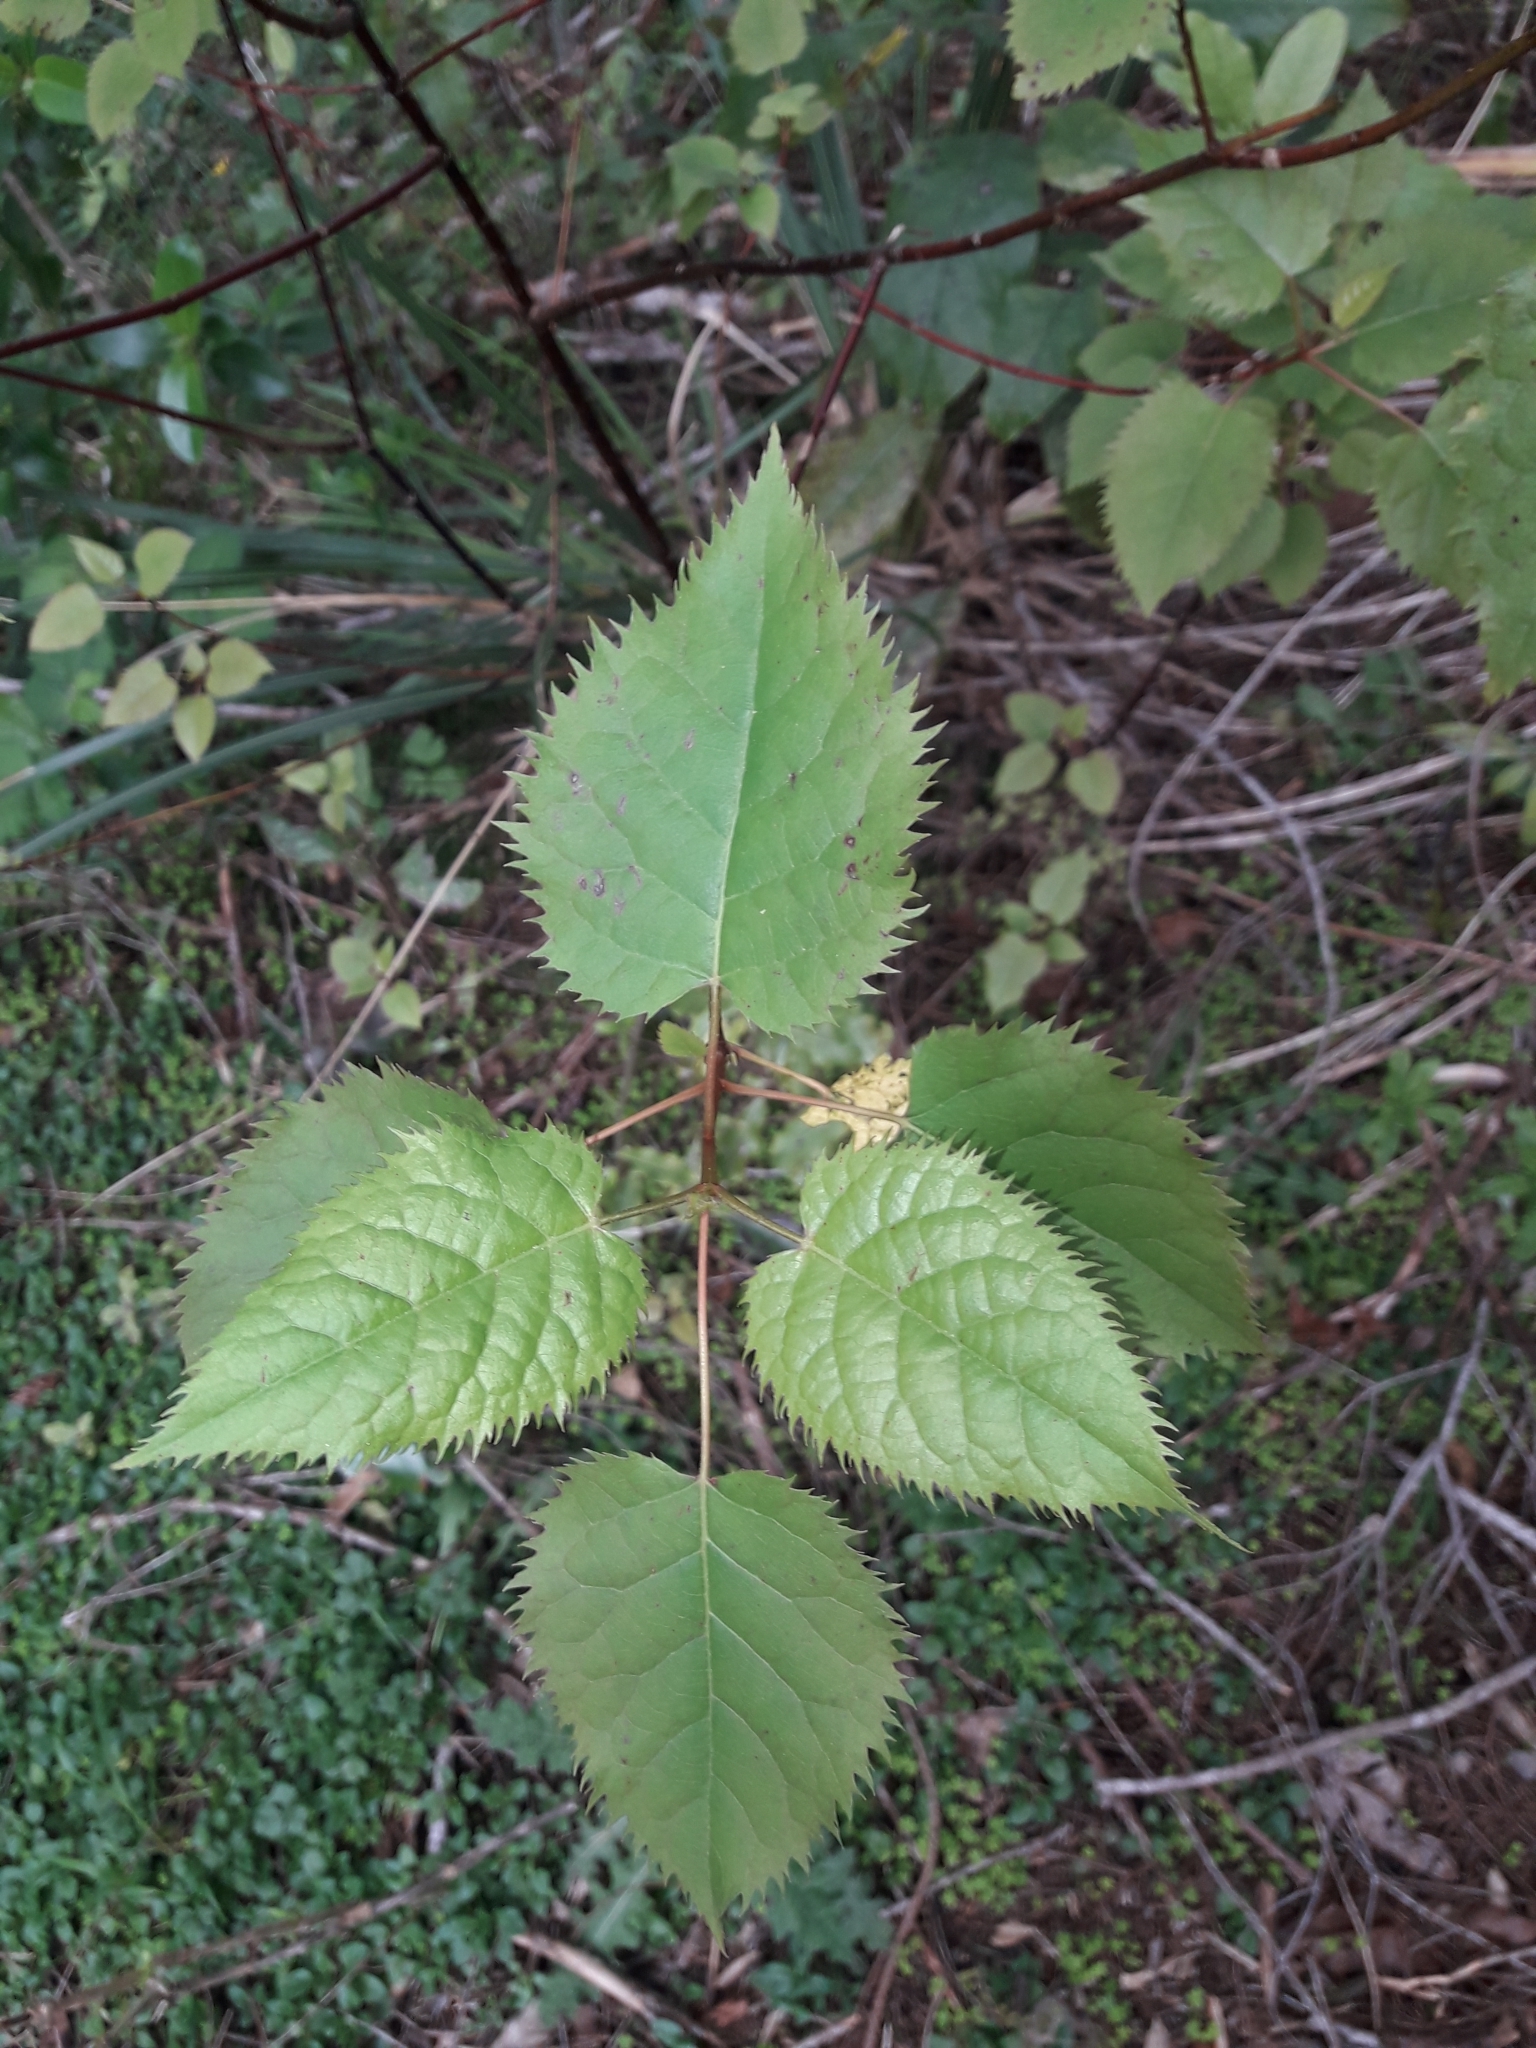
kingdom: Plantae
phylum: Tracheophyta
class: Magnoliopsida
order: Oxalidales
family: Elaeocarpaceae
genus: Aristotelia
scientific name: Aristotelia serrata
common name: New zealand wineberry
